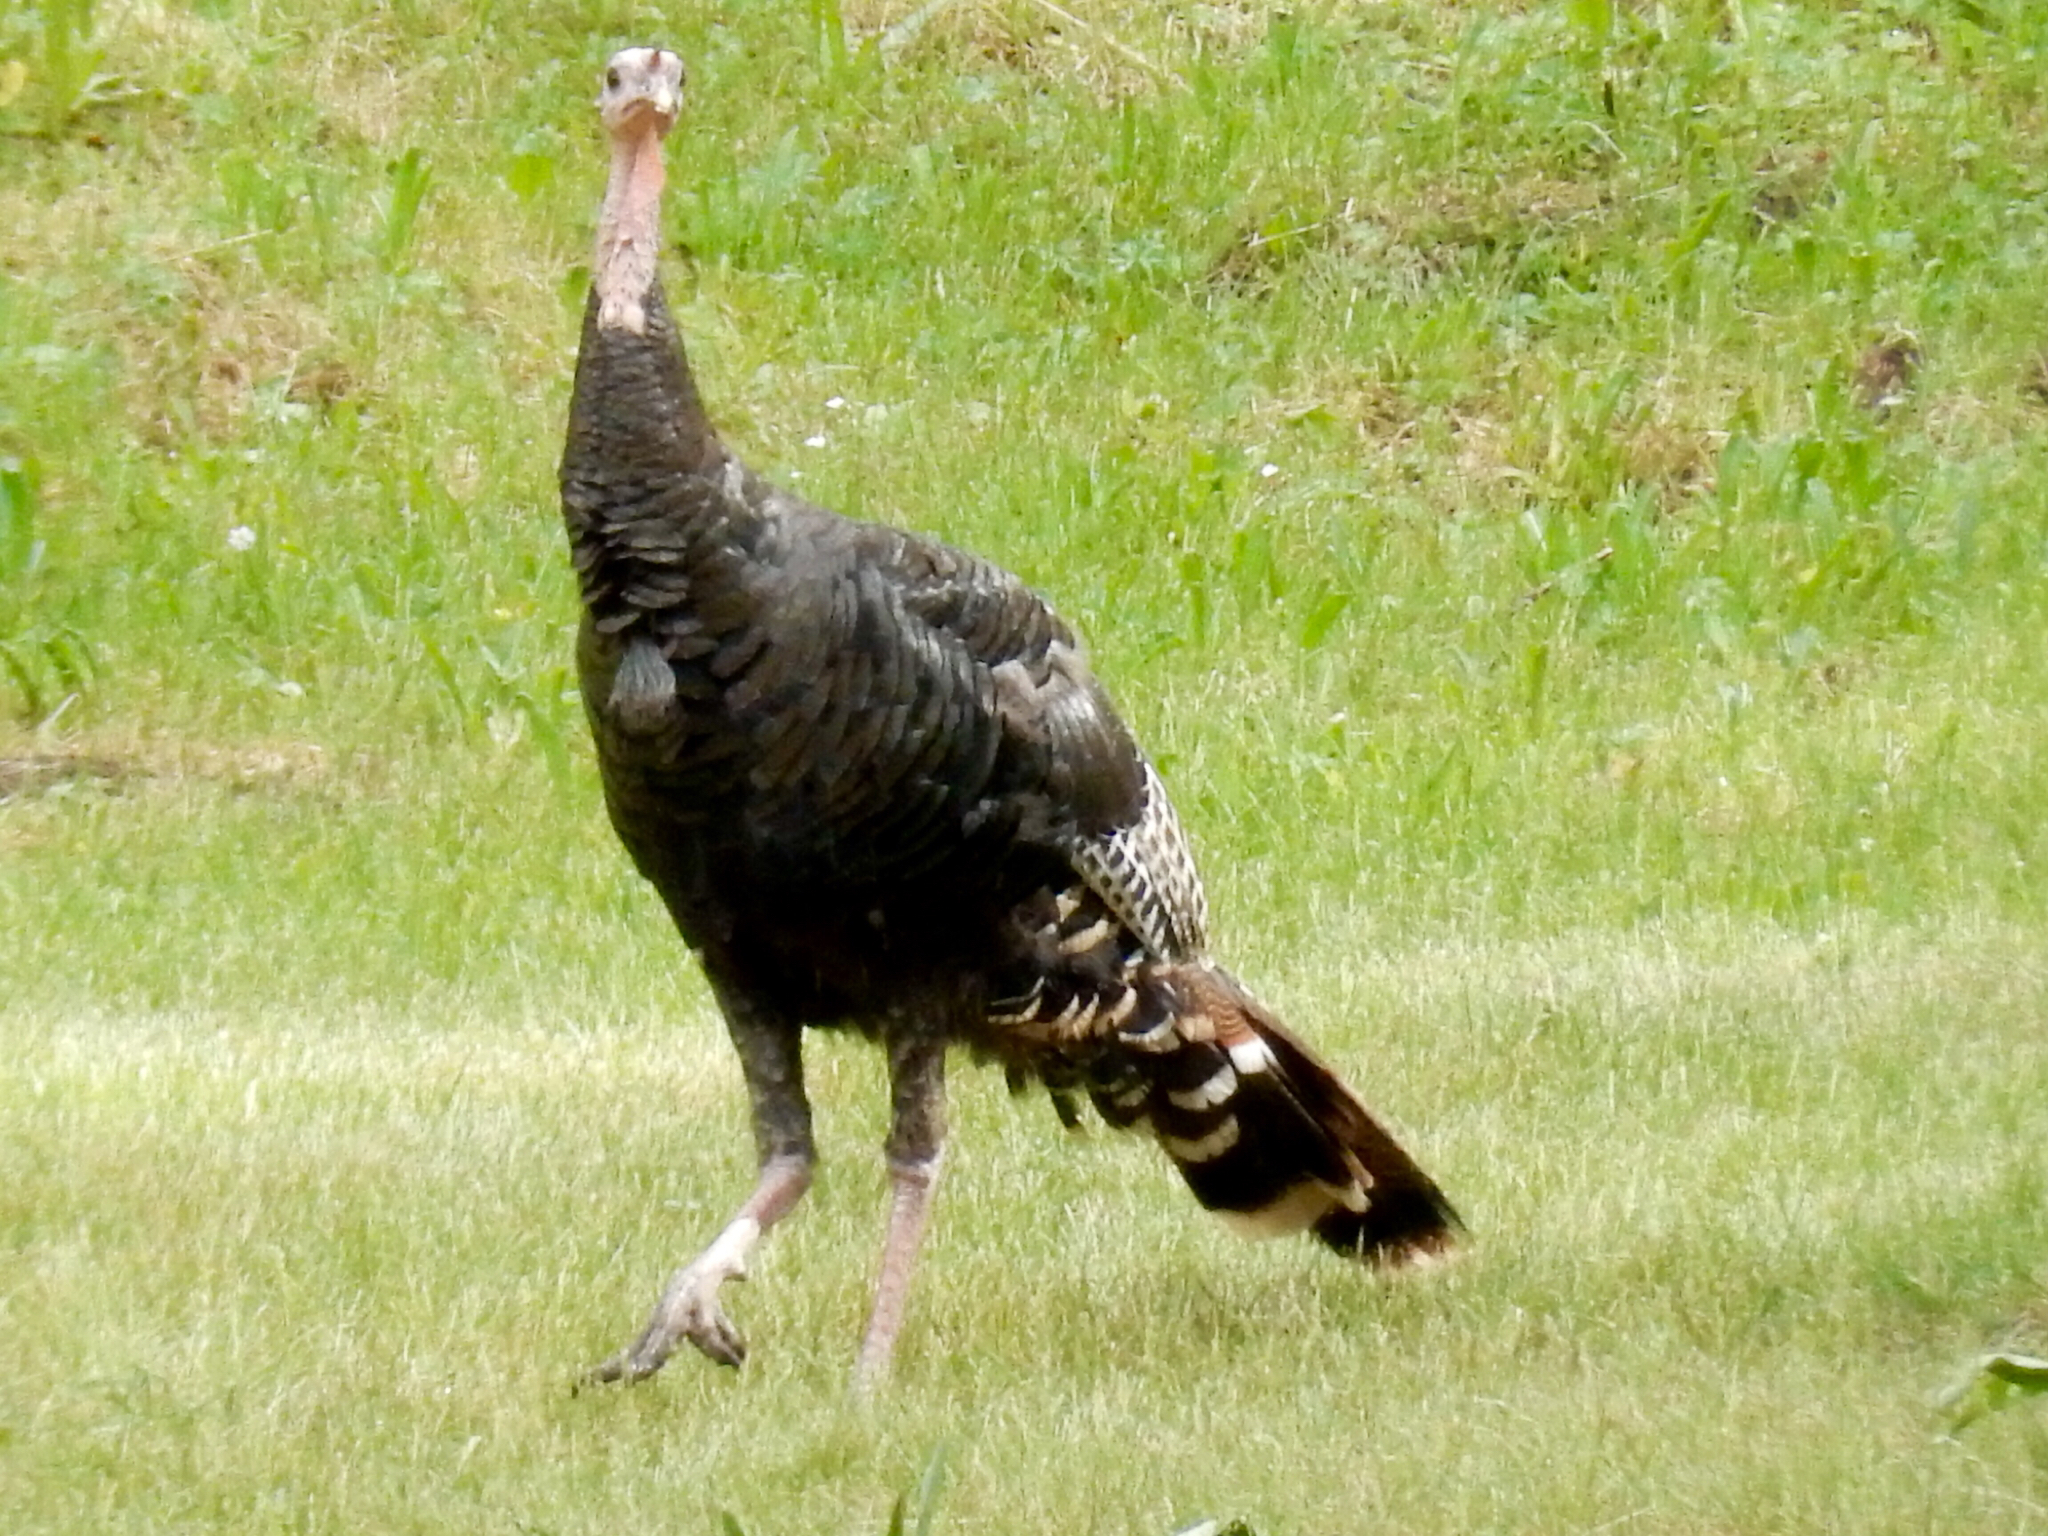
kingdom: Animalia
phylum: Chordata
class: Aves
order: Galliformes
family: Phasianidae
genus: Meleagris
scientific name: Meleagris gallopavo
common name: Wild turkey
